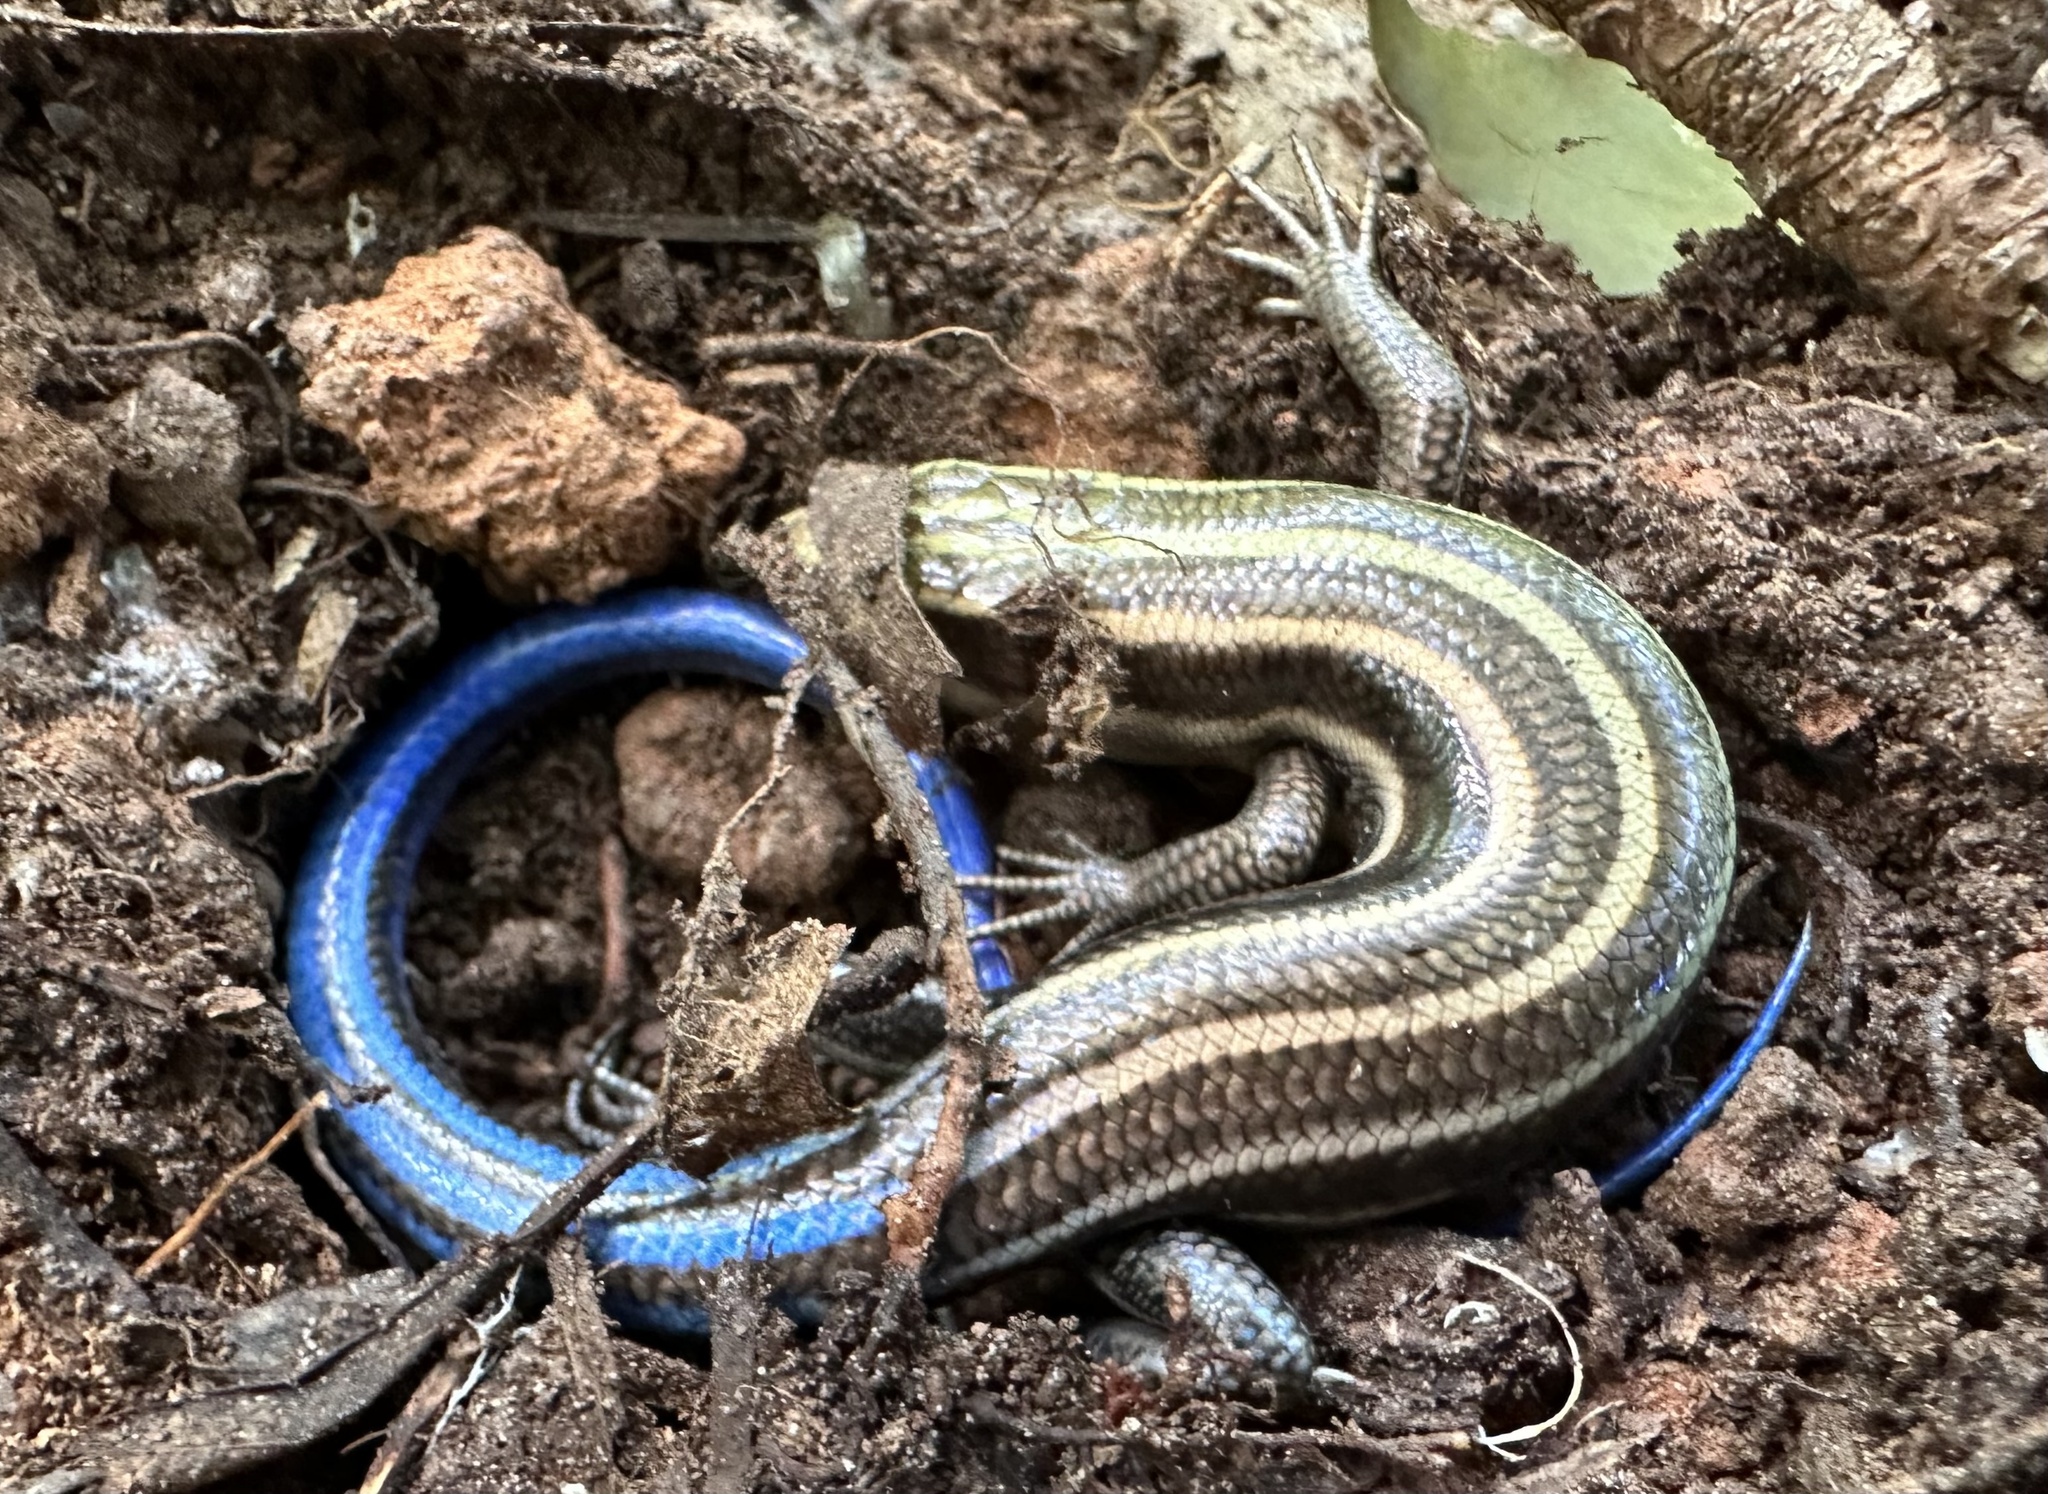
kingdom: Animalia
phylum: Chordata
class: Squamata
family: Scincidae
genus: Plestiodon
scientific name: Plestiodon fasciatus
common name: Five-lined skink
